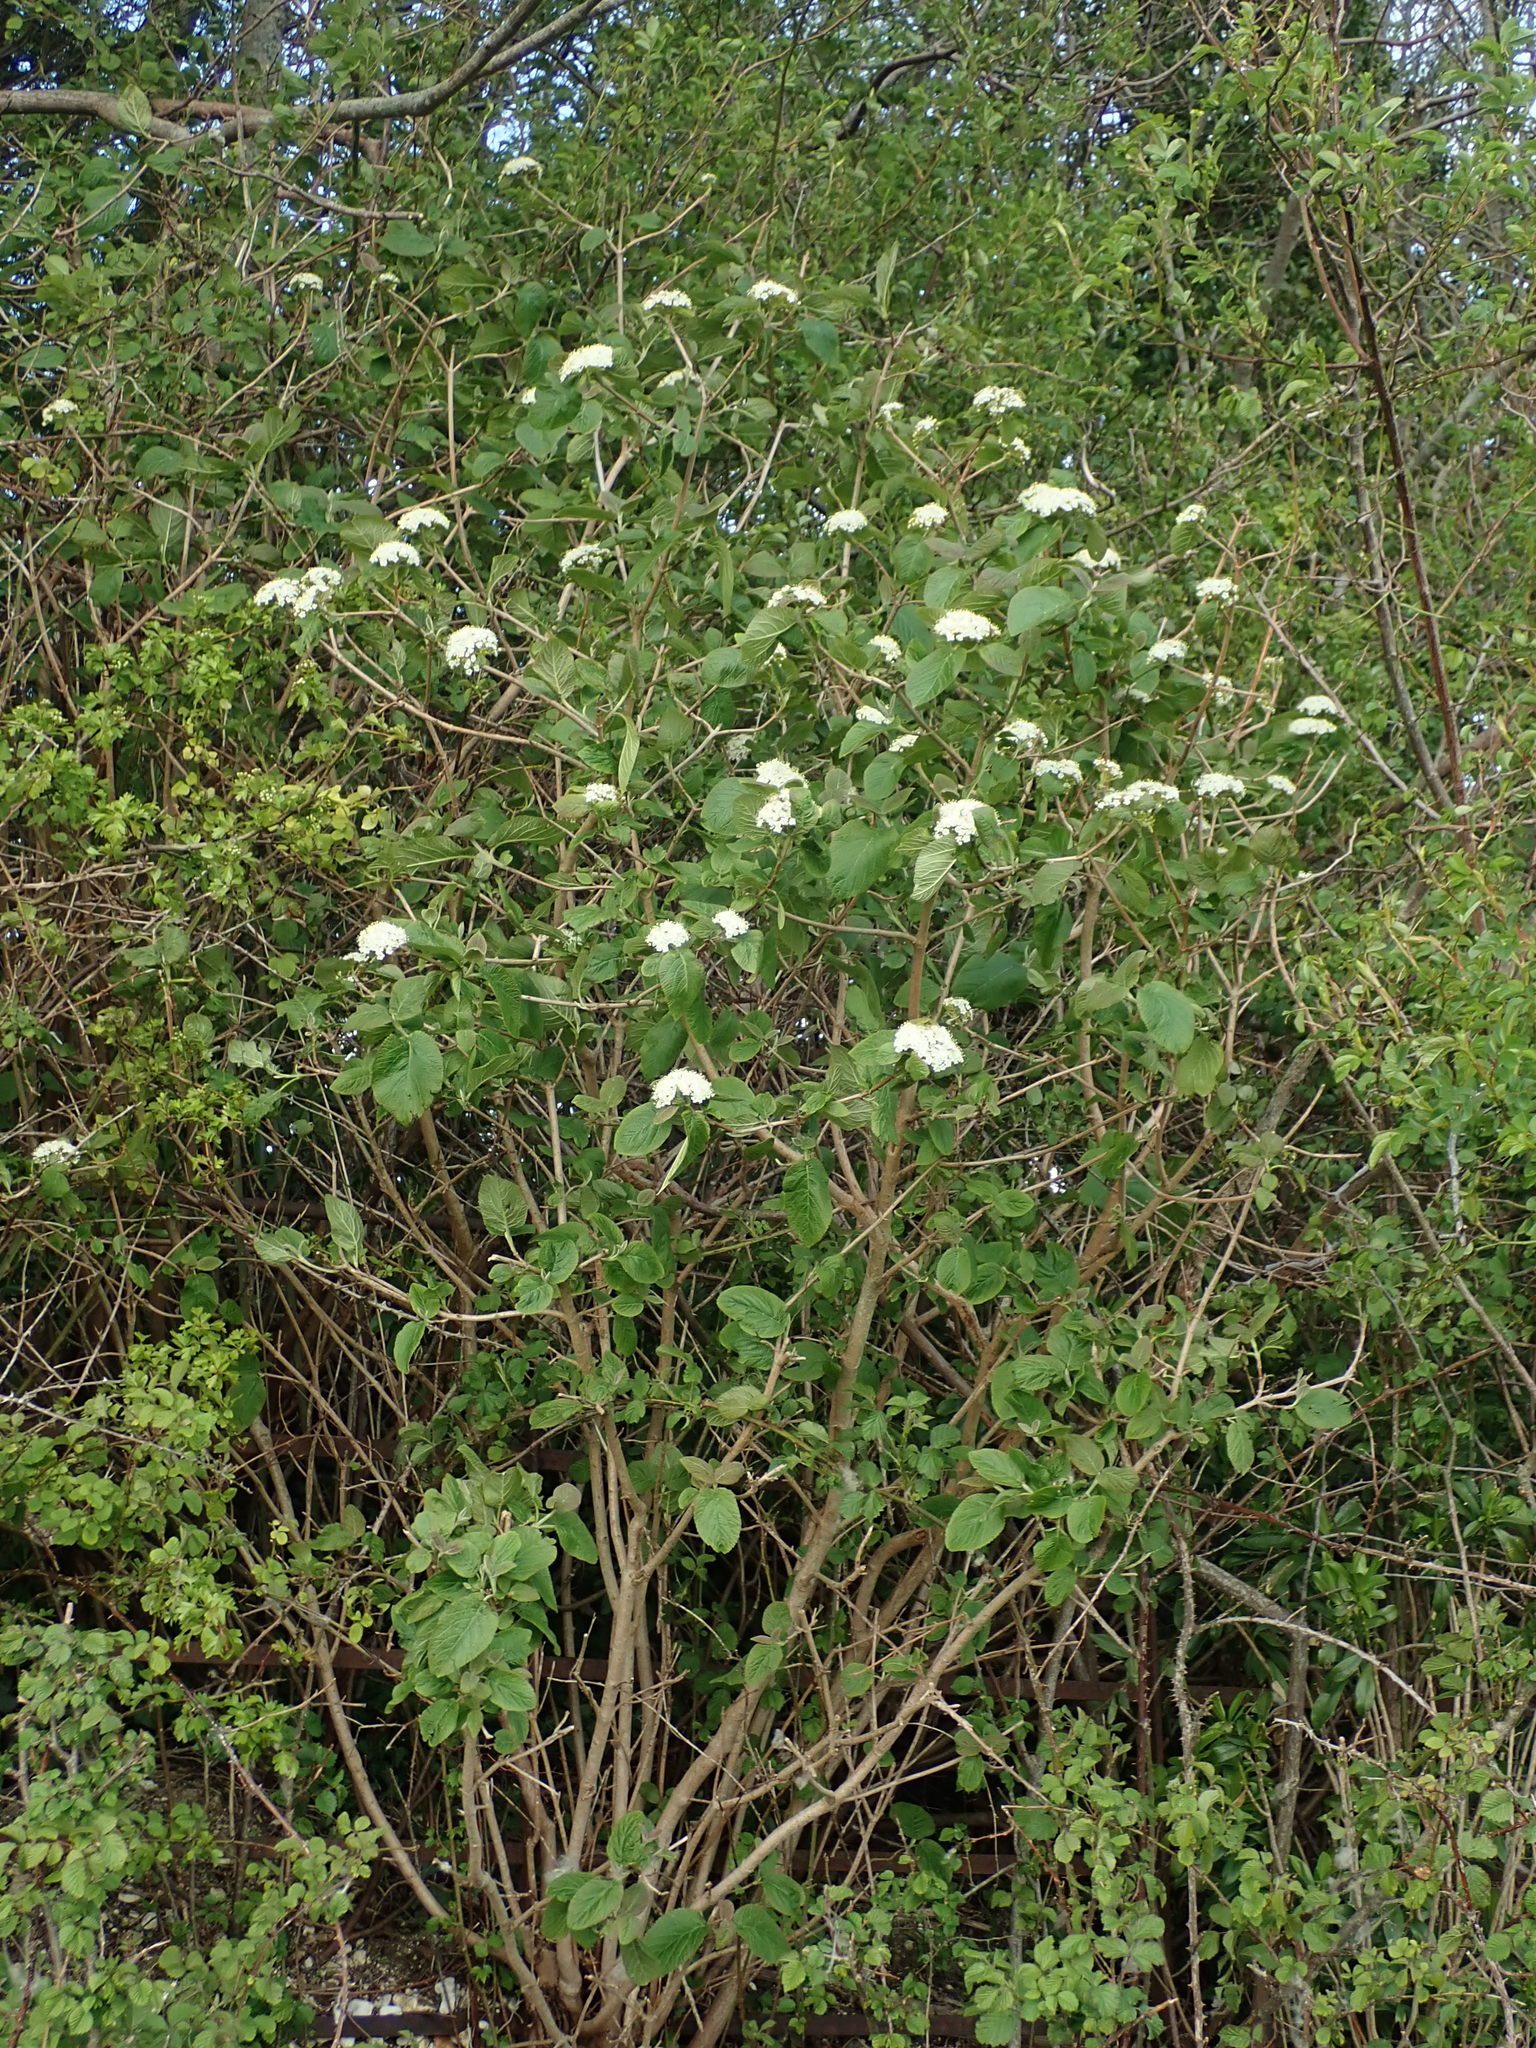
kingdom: Plantae
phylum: Tracheophyta
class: Magnoliopsida
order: Dipsacales
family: Viburnaceae
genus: Viburnum
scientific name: Viburnum lantana
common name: Wayfaring tree
